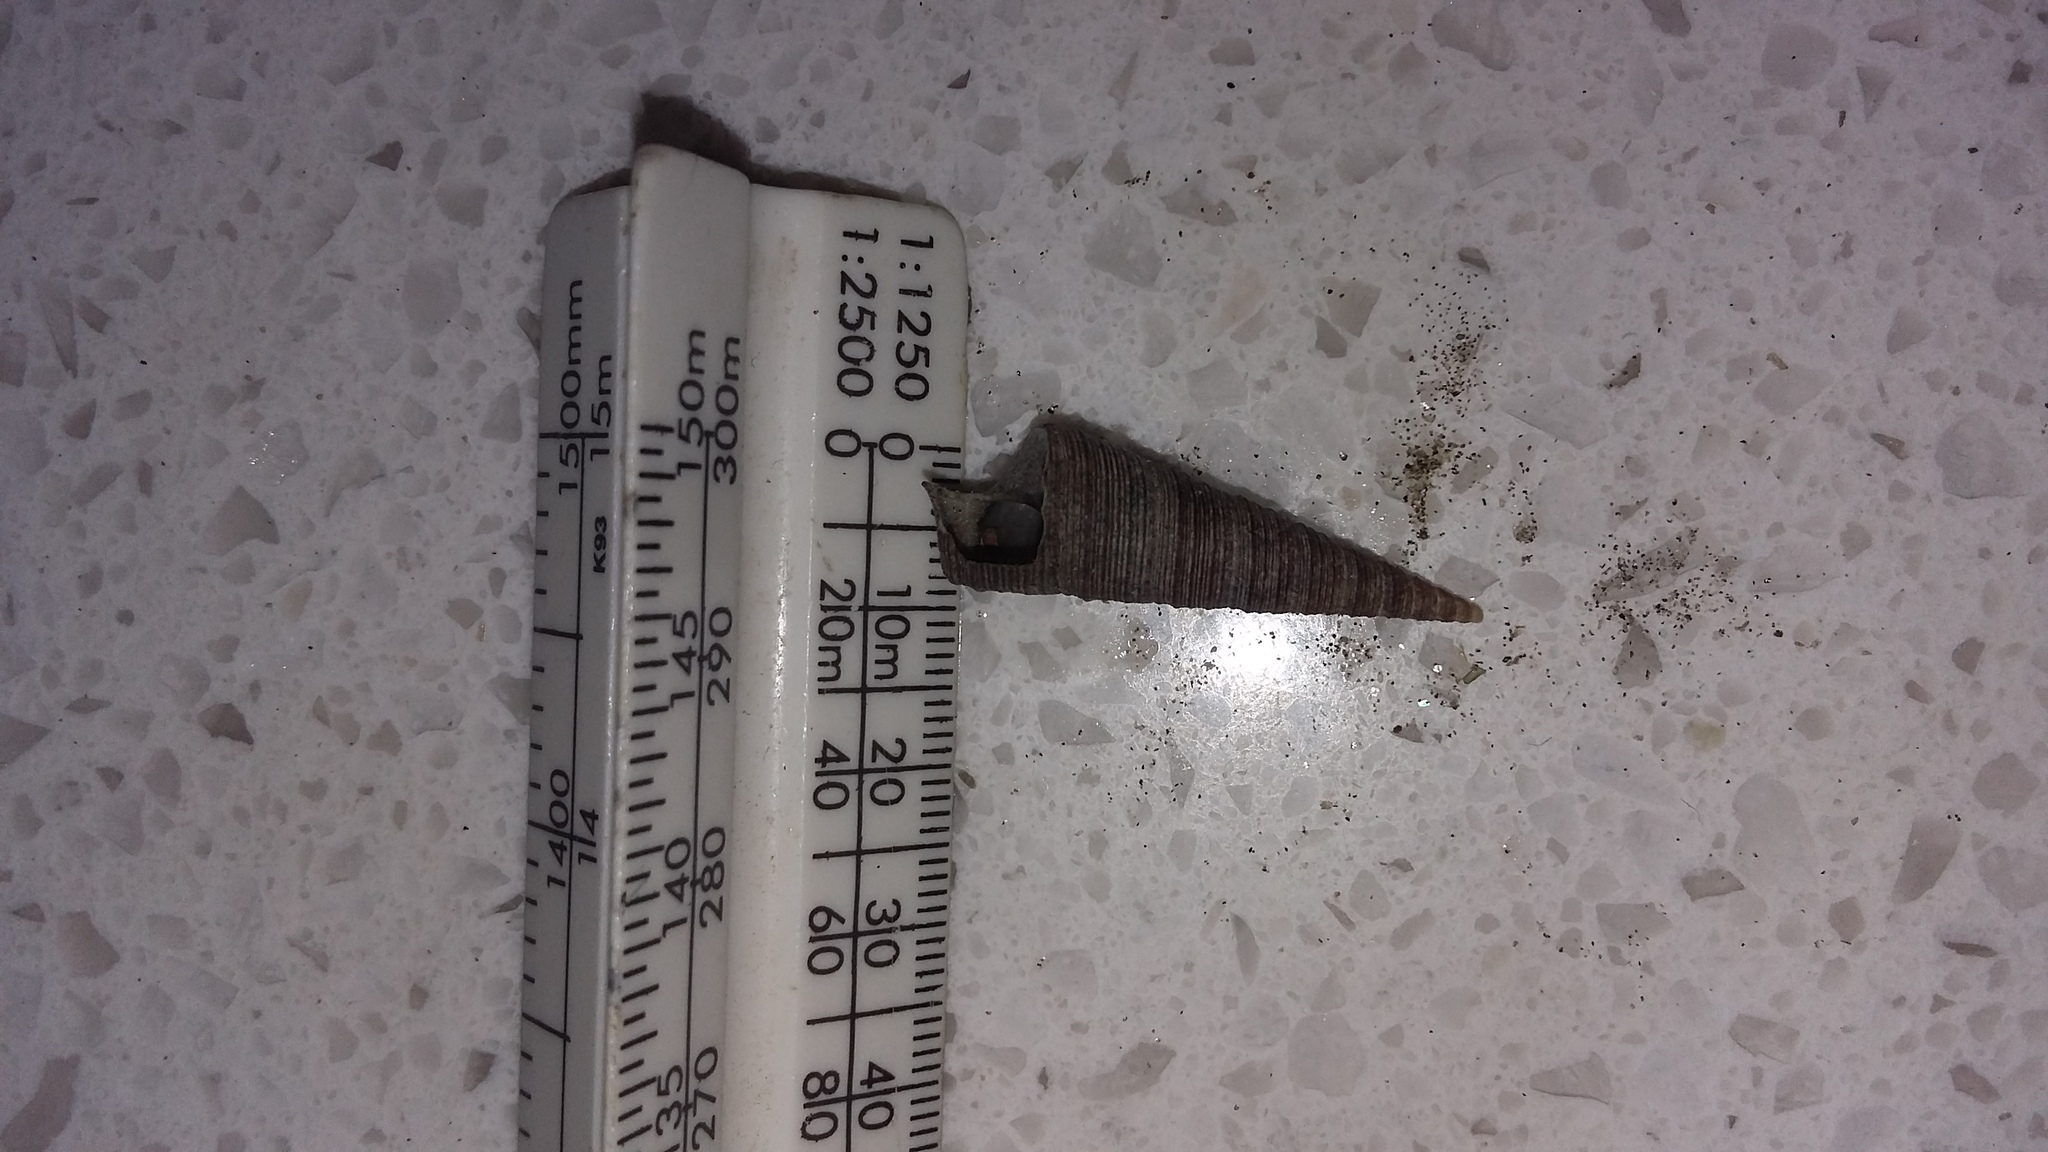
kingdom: Animalia
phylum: Mollusca
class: Gastropoda
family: Turritellidae
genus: Maoricolpus
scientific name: Maoricolpus roseus
